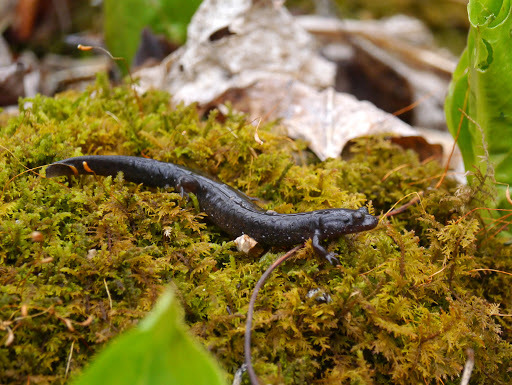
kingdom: Animalia
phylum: Chordata
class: Amphibia
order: Caudata
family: Plethodontidae
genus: Desmognathus
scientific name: Desmognathus fuscus
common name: Northern dusky salamander
